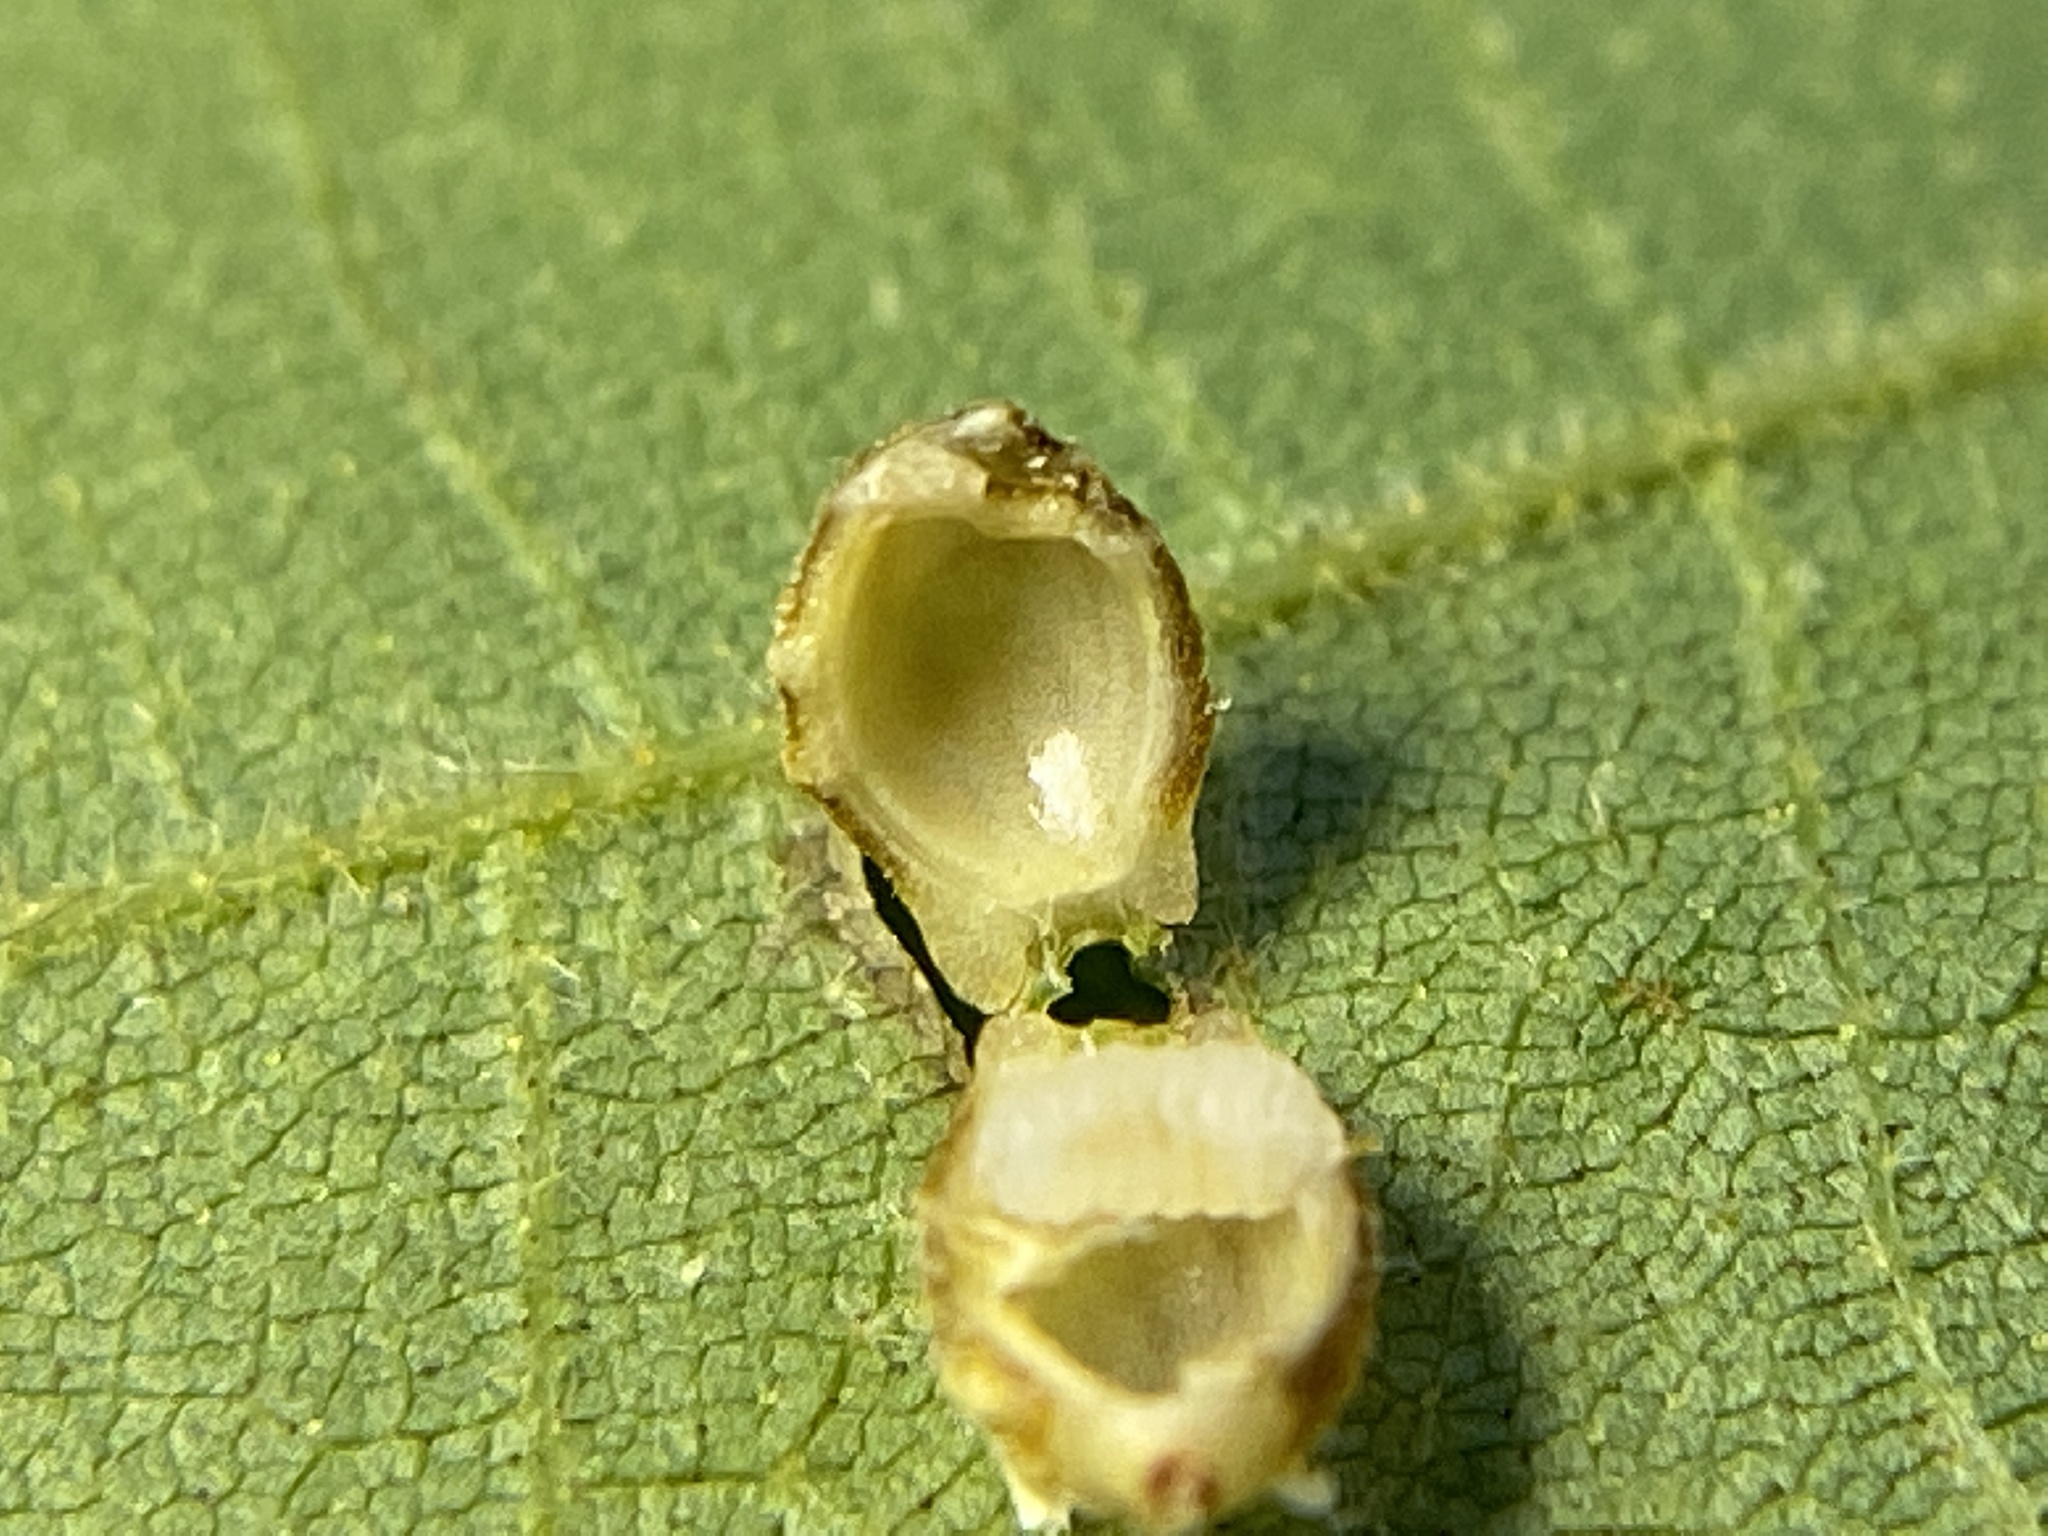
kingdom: Animalia
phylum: Arthropoda
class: Insecta
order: Diptera
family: Cecidomyiidae
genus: Caryomyia
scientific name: Caryomyia tuberidolium
